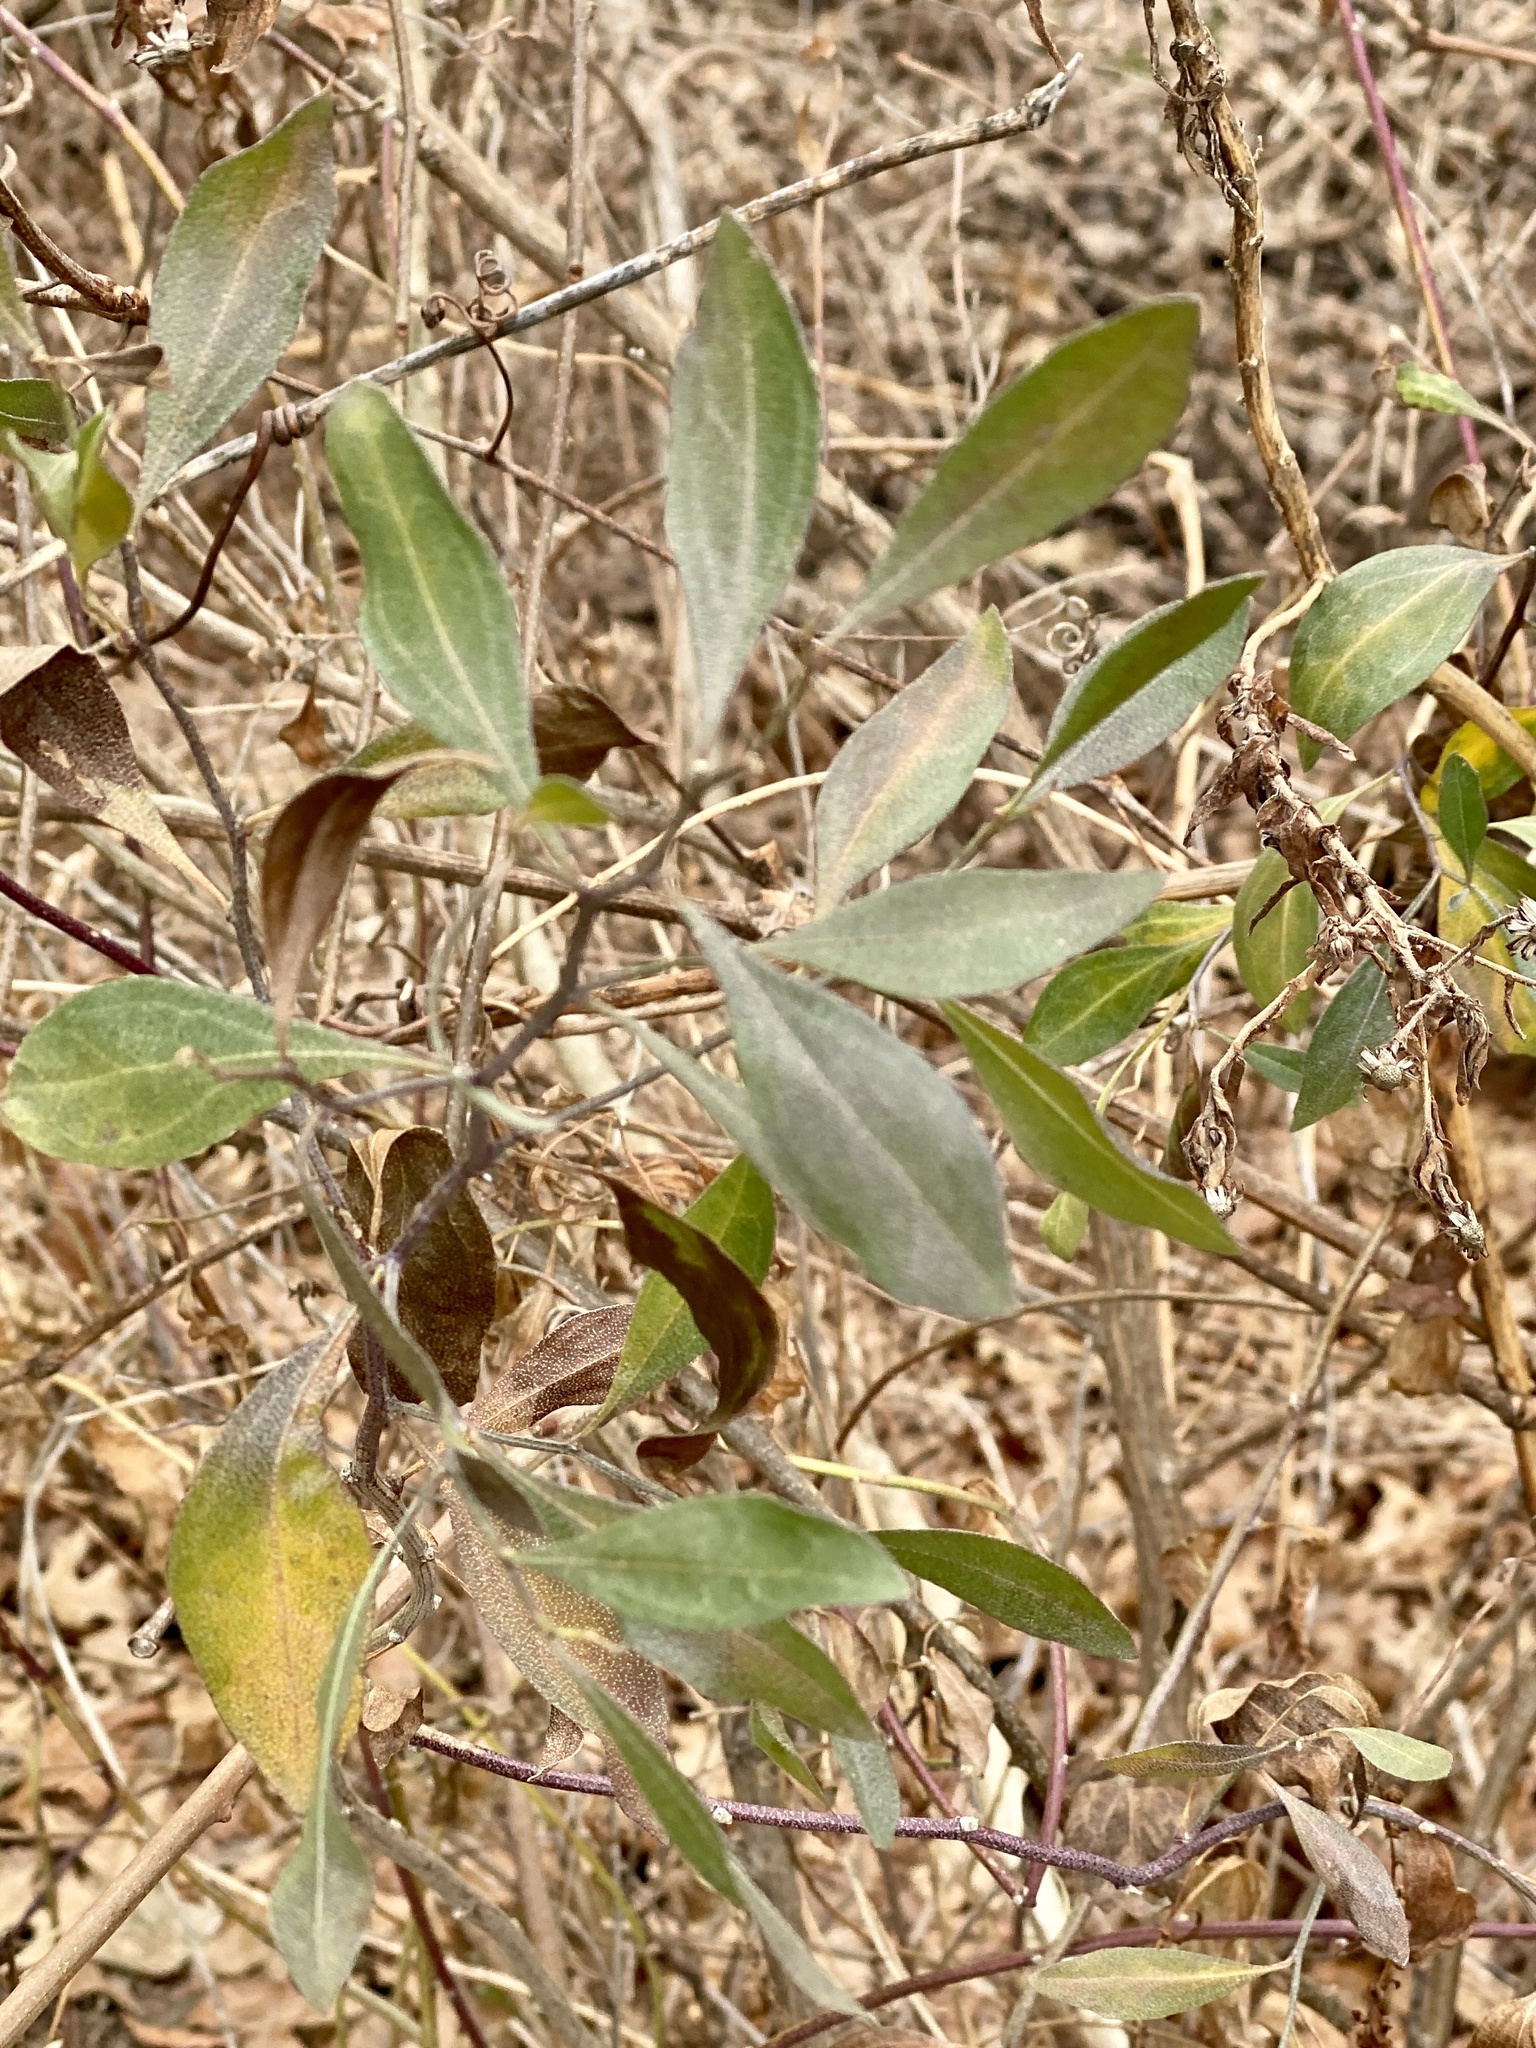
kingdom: Plantae
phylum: Tracheophyta
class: Magnoliopsida
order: Asterales
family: Asteraceae
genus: Baccharis
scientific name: Baccharis halimifolia
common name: Eastern baccharis
